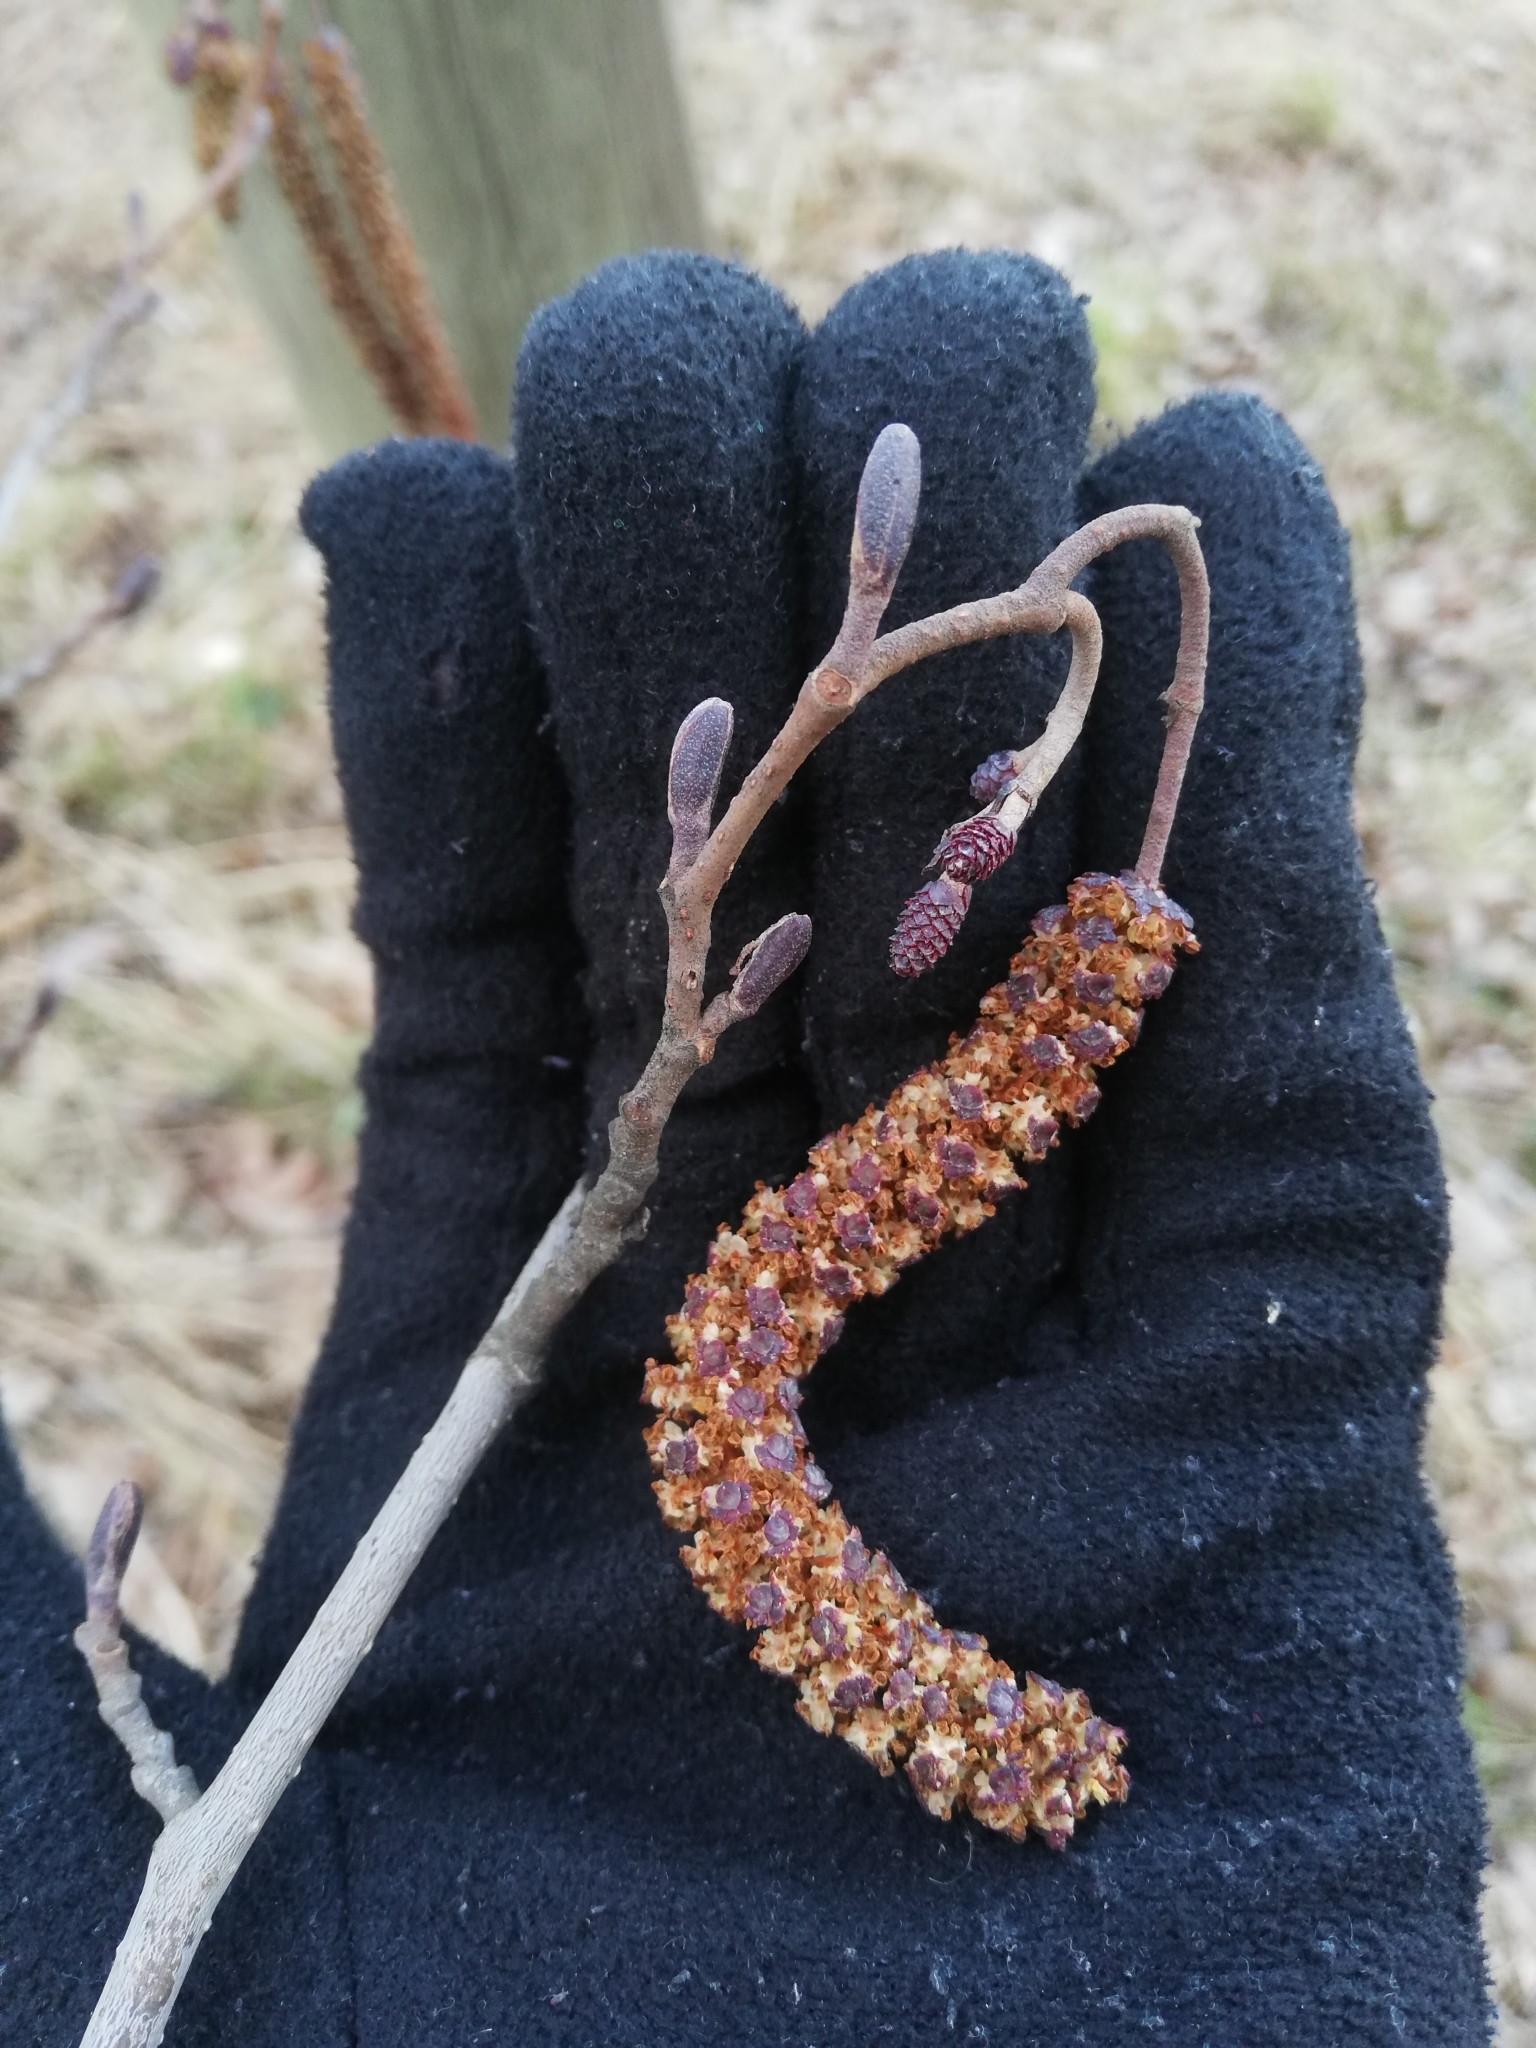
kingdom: Plantae
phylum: Tracheophyta
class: Magnoliopsida
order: Fagales
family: Betulaceae
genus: Alnus
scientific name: Alnus glutinosa
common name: Black alder
